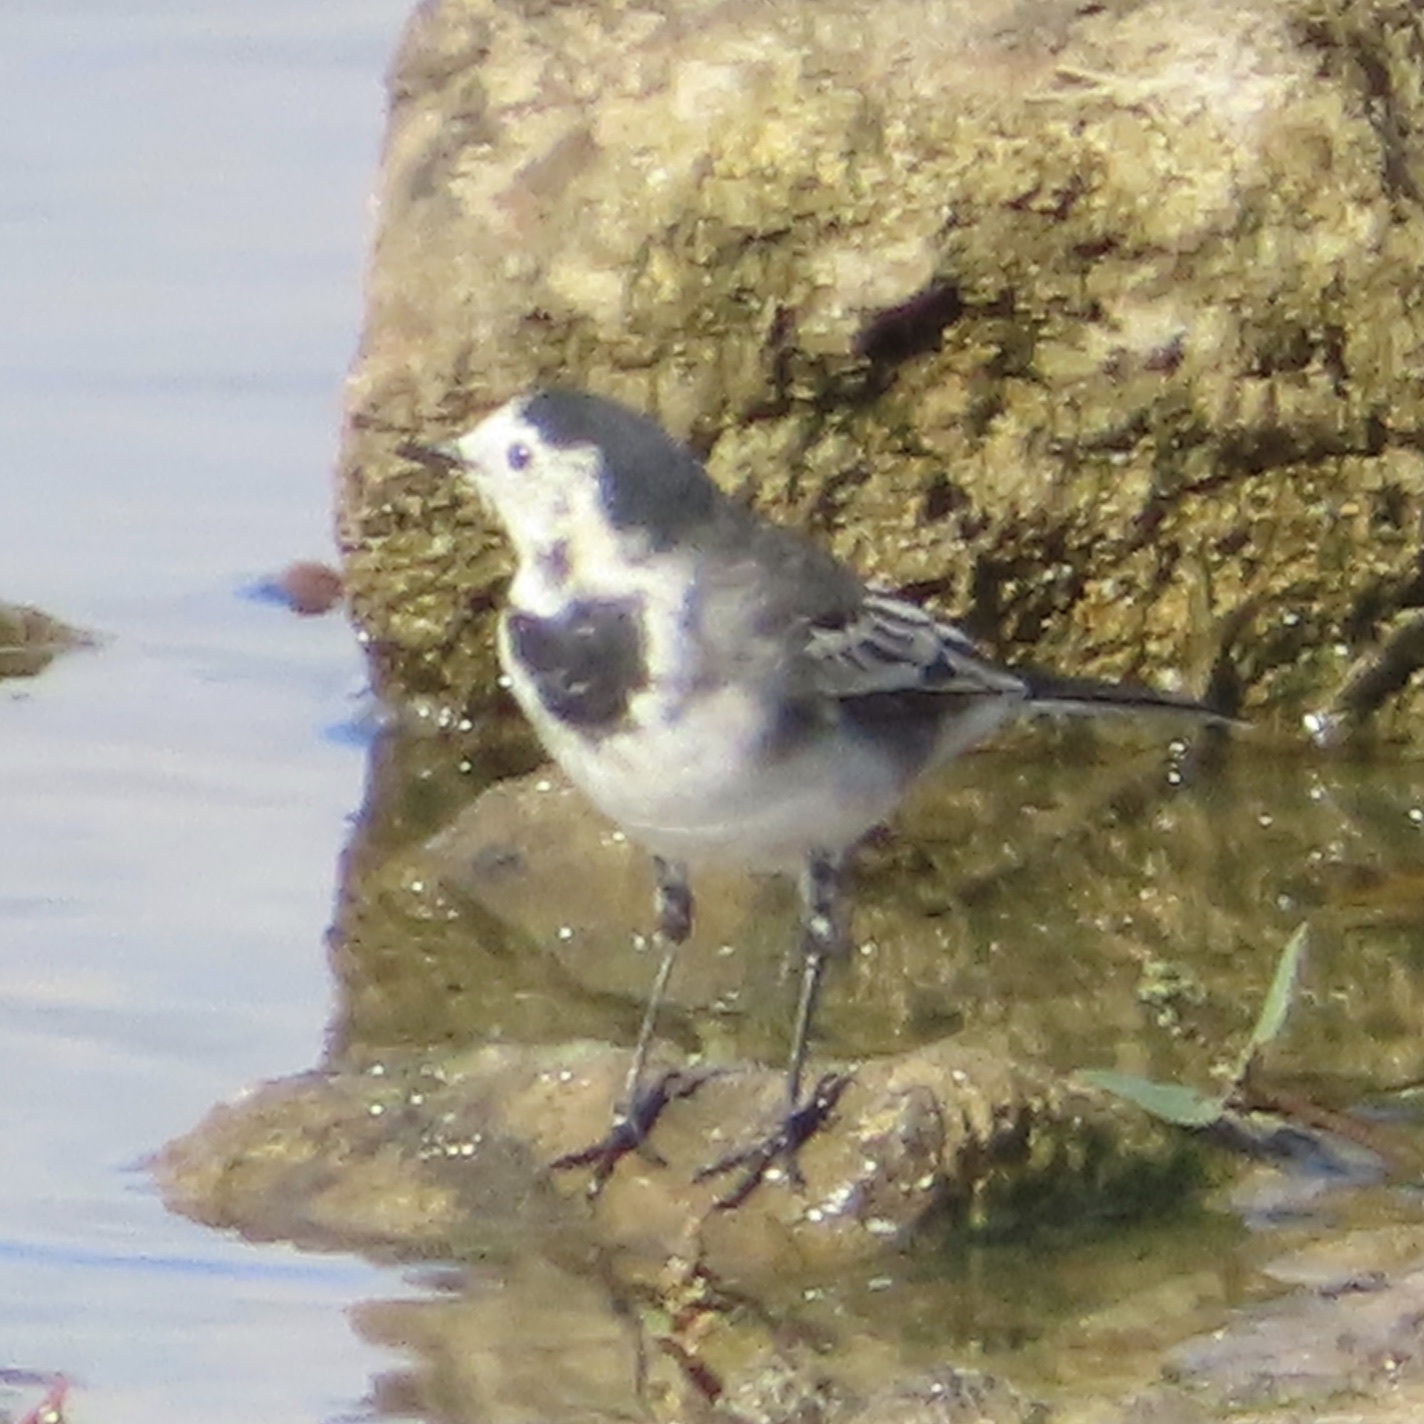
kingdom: Animalia
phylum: Chordata
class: Aves
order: Passeriformes
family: Motacillidae
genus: Motacilla
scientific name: Motacilla alba
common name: White wagtail
